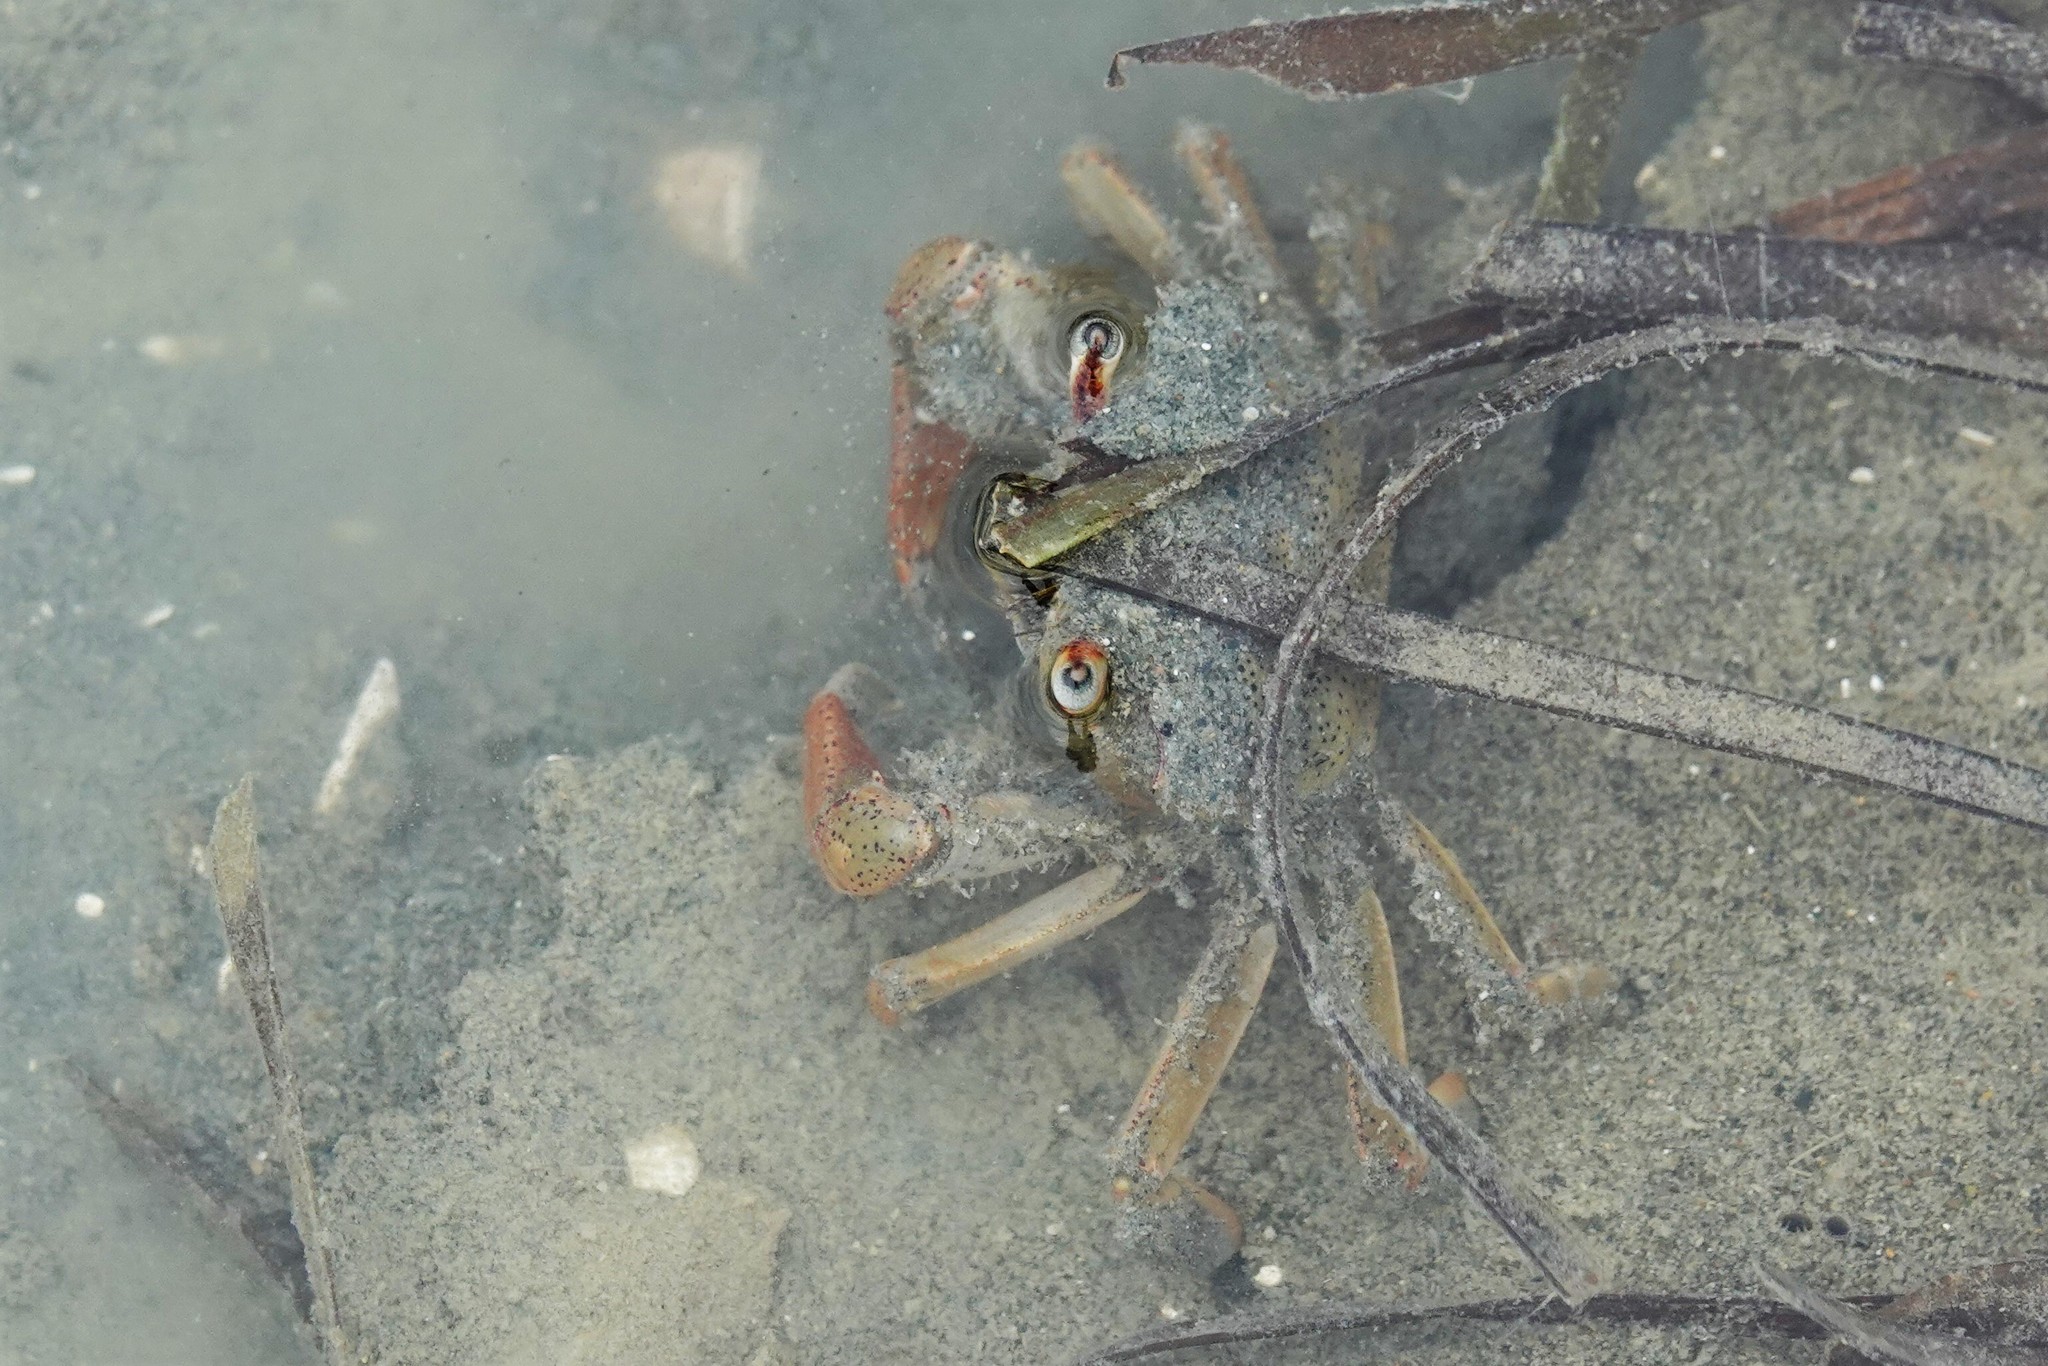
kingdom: Animalia
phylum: Arthropoda
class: Malacostraca
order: Decapoda
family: Macrophthalmidae
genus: Hemiplax
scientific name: Hemiplax hirtipes
